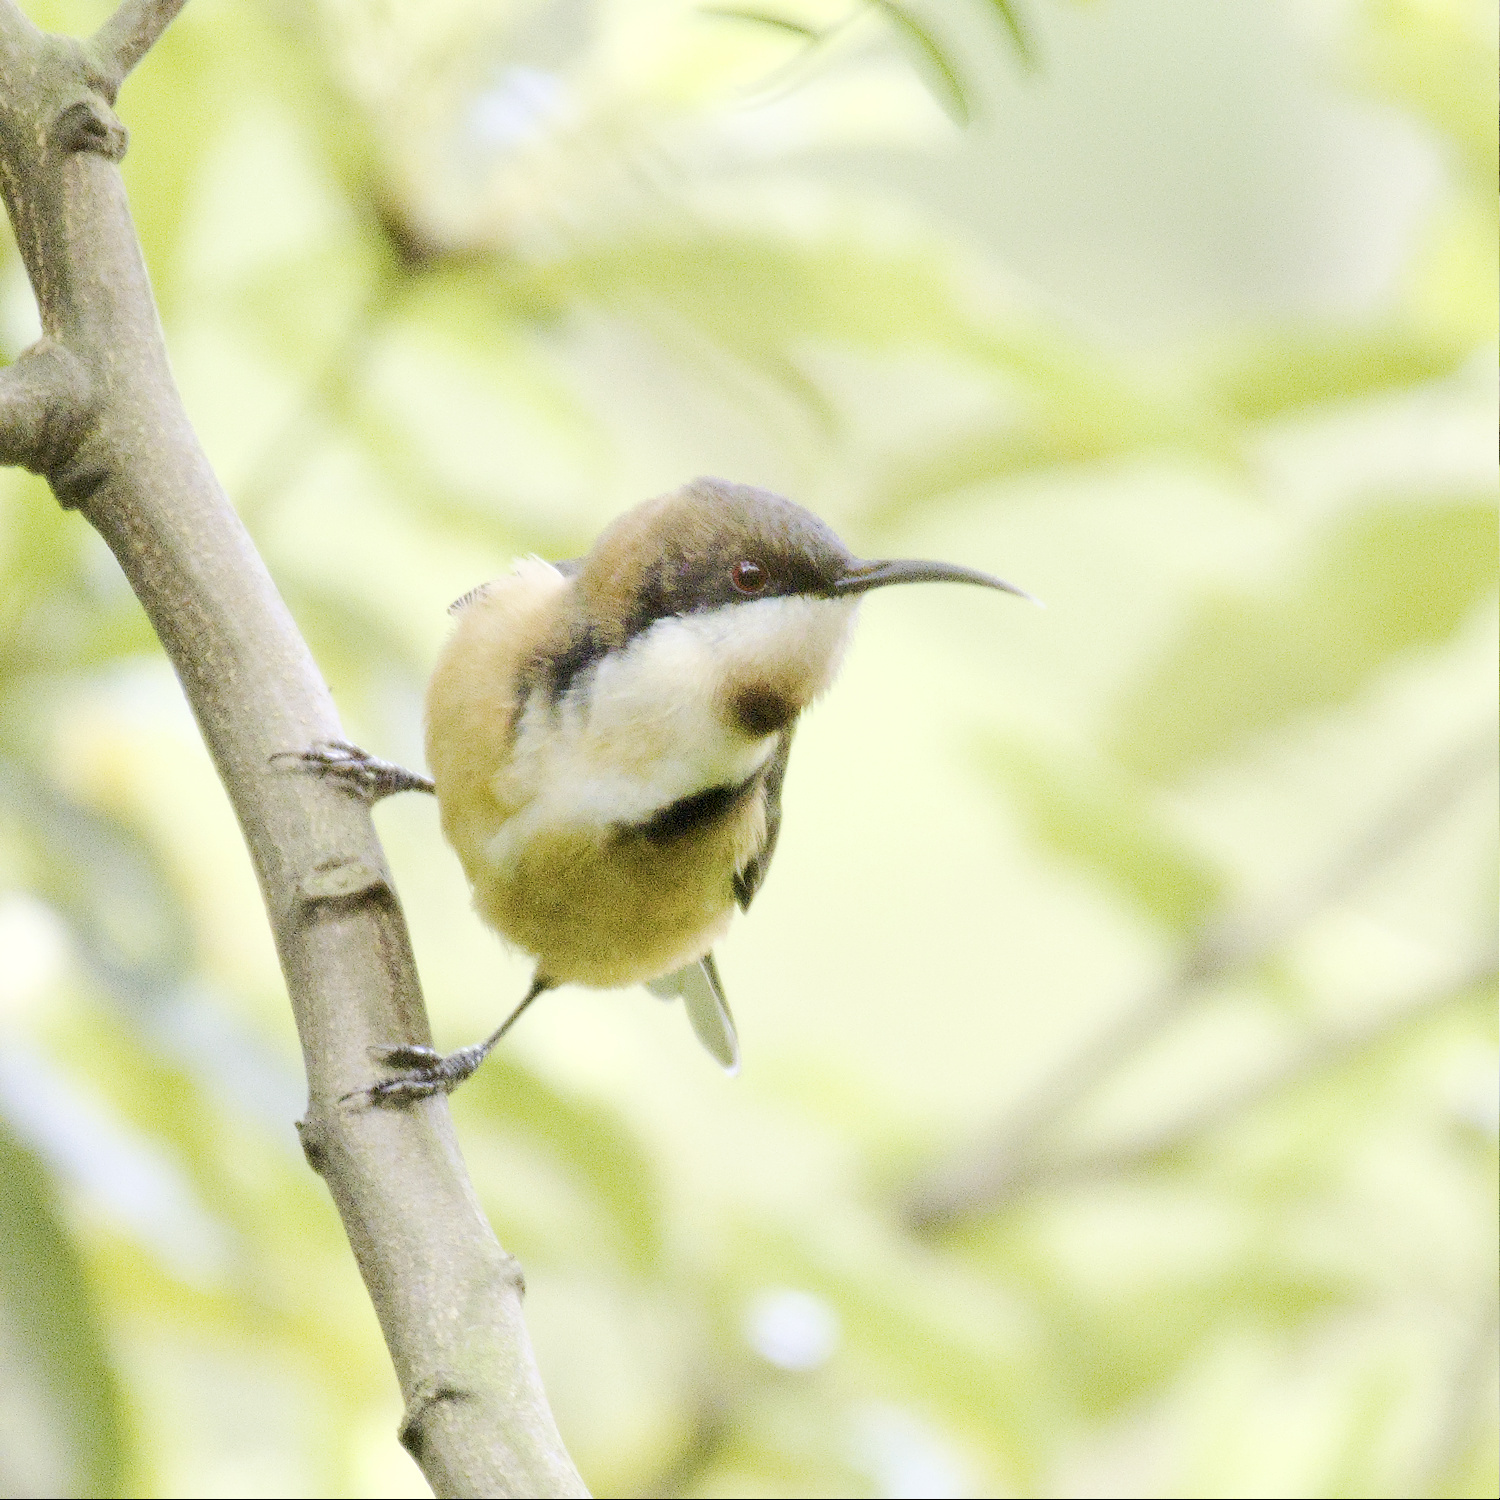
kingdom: Animalia
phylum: Chordata
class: Aves
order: Passeriformes
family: Meliphagidae
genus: Acanthorhynchus
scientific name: Acanthorhynchus tenuirostris
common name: Eastern spinebill
